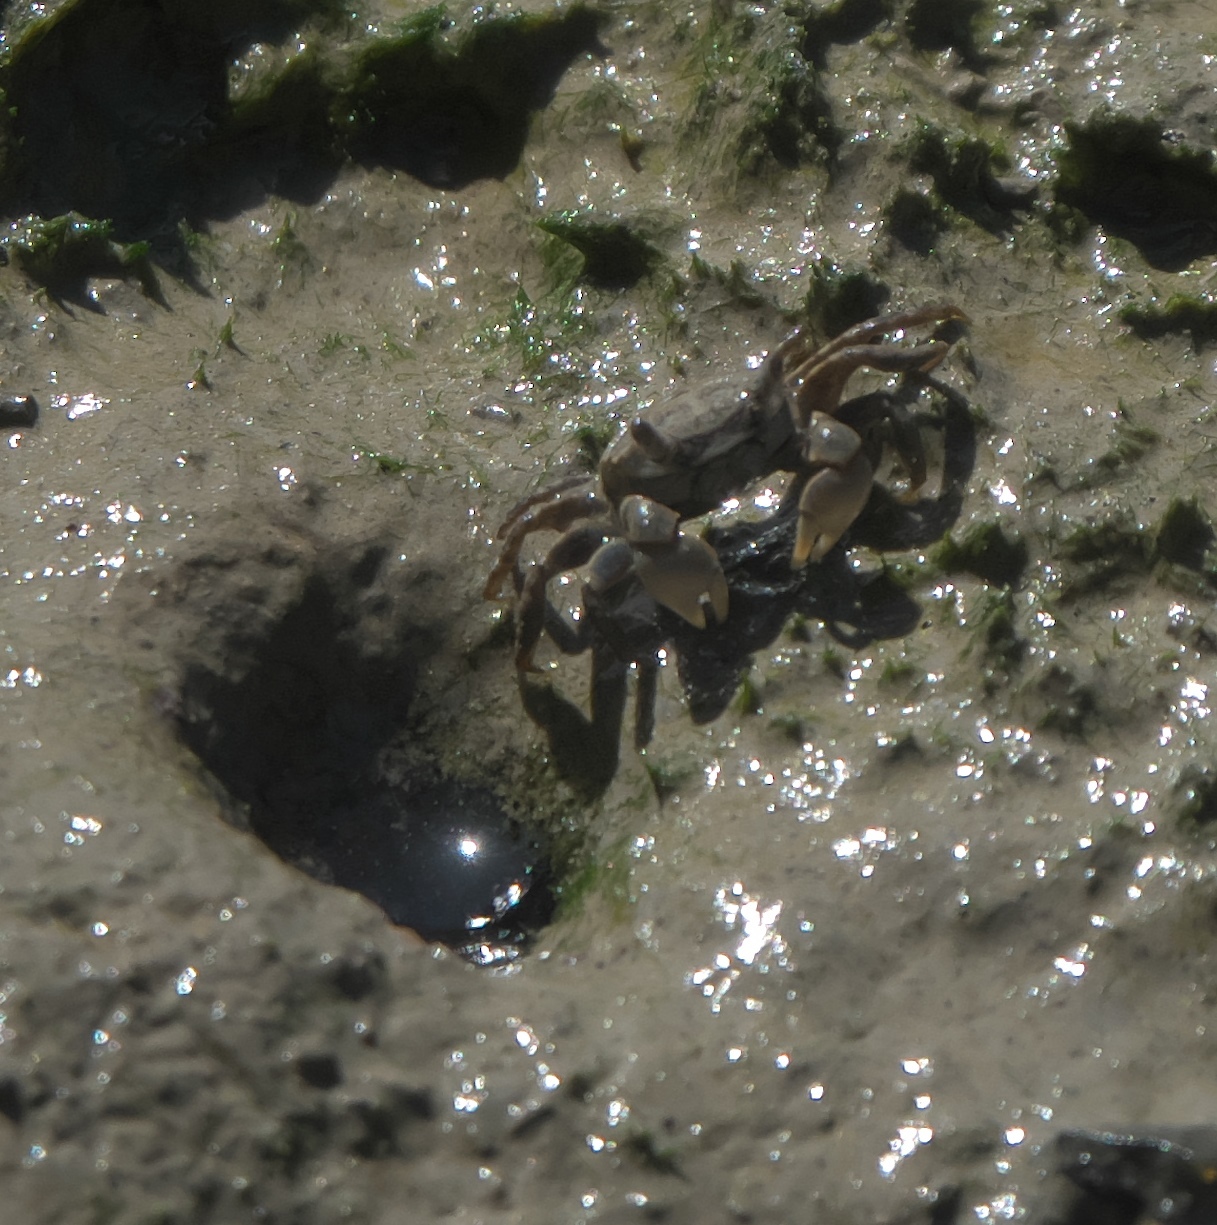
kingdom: Animalia
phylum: Arthropoda
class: Malacostraca
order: Decapoda
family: Varunidae
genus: Austrohelice
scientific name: Austrohelice crassa
